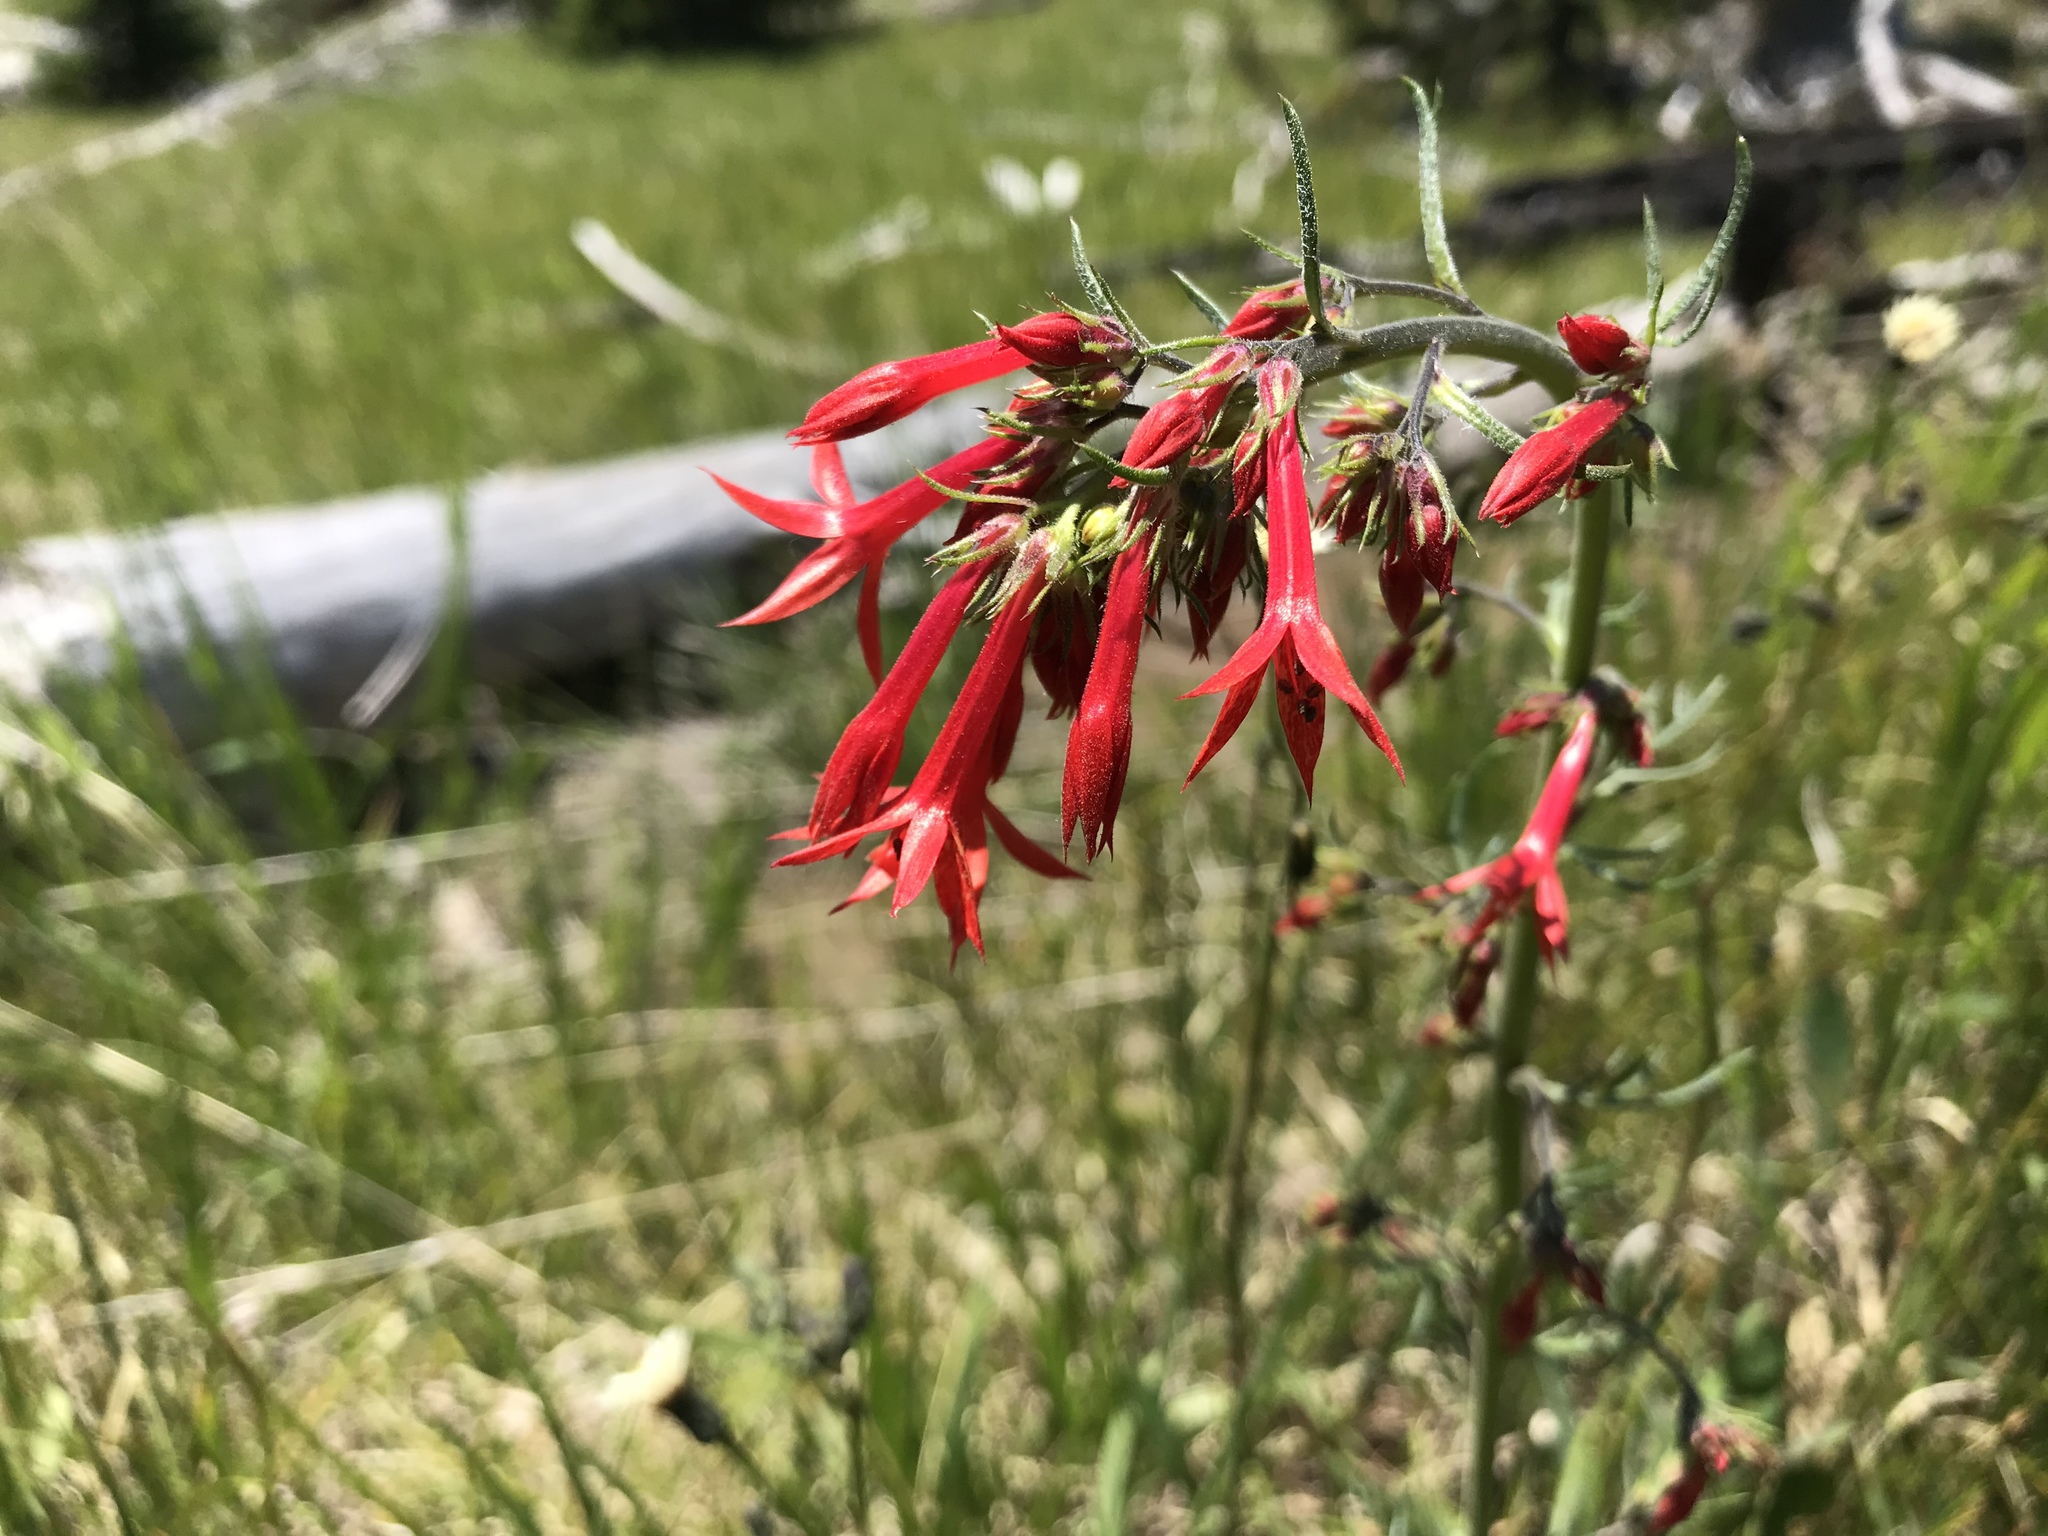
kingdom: Plantae
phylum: Tracheophyta
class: Magnoliopsida
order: Ericales
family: Polemoniaceae
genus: Ipomopsis
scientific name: Ipomopsis aggregata
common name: Scarlet gilia
